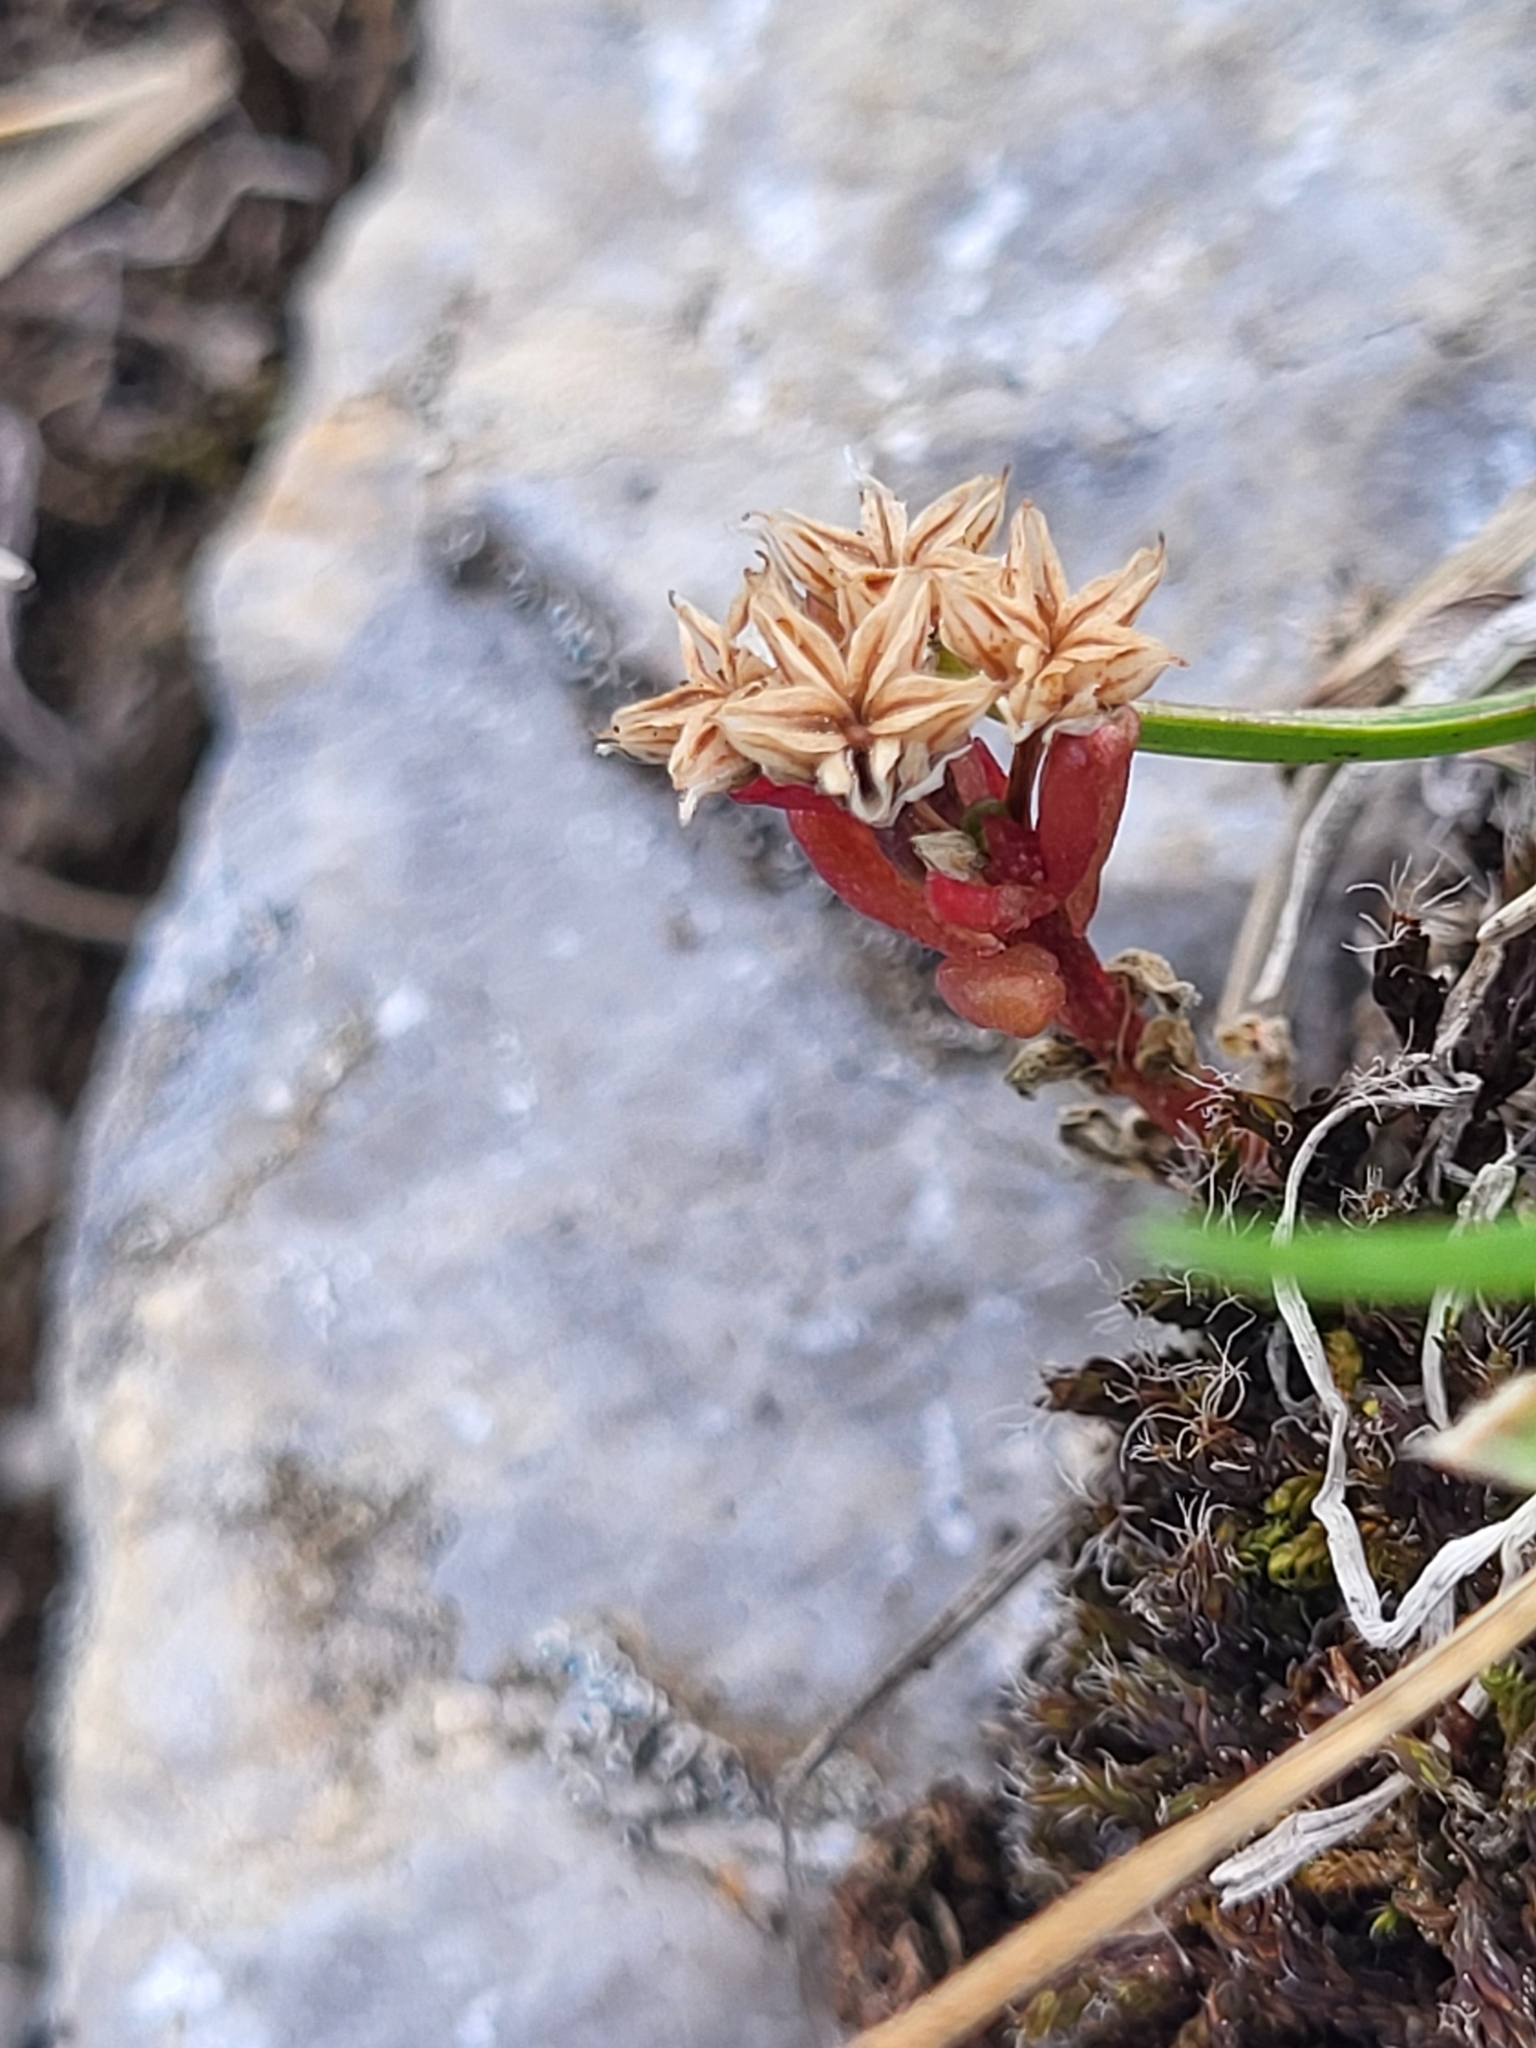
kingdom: Plantae
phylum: Tracheophyta
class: Magnoliopsida
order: Saxifragales
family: Crassulaceae
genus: Sedum
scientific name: Sedum atratum
